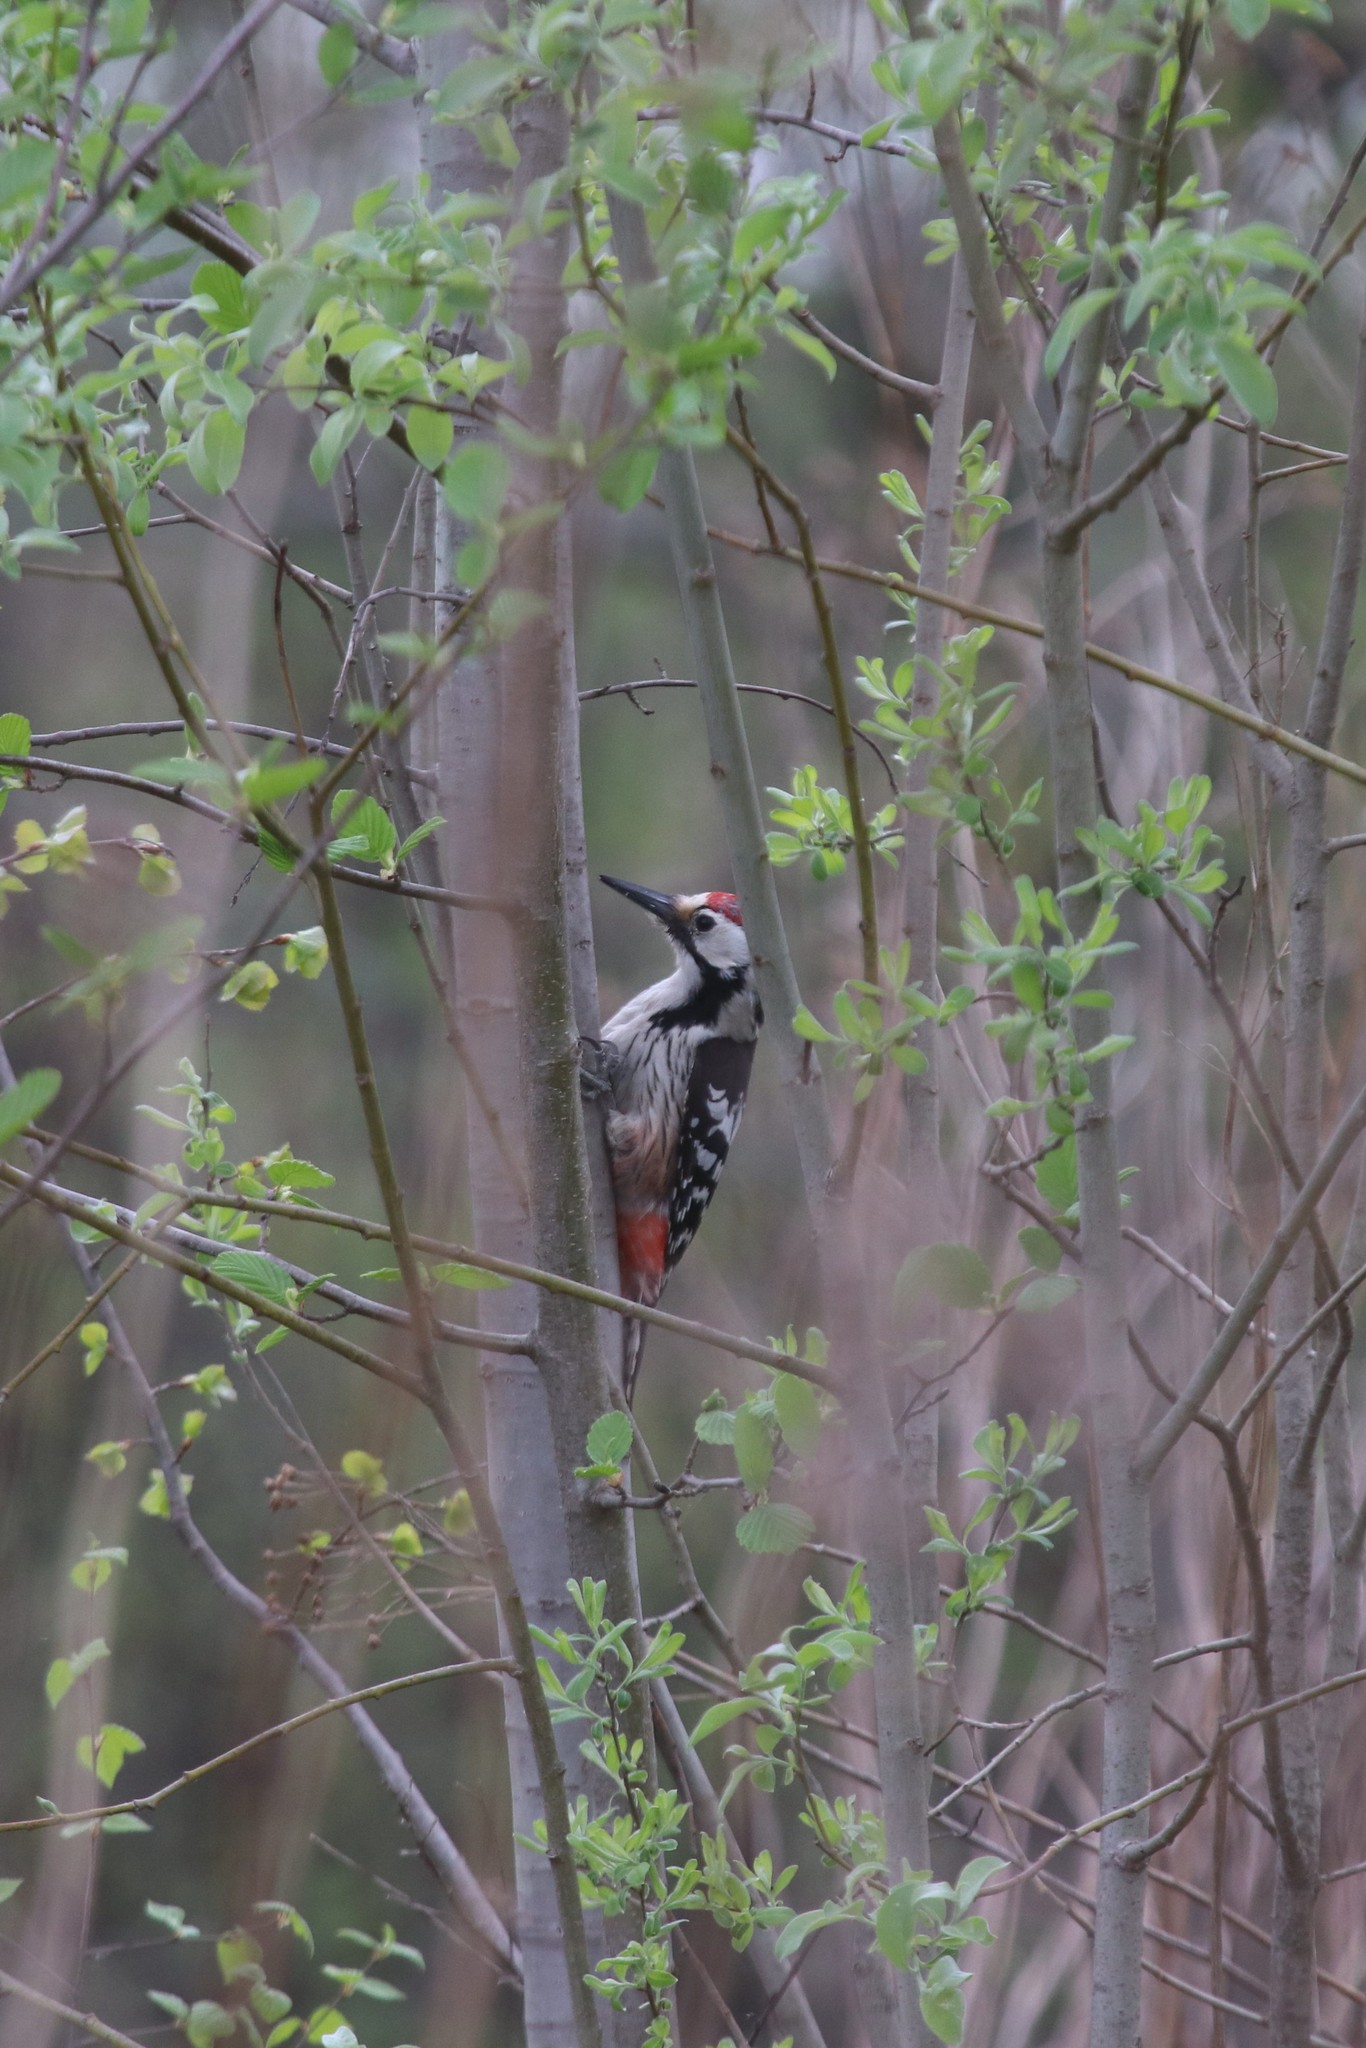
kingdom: Animalia
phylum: Chordata
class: Aves
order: Piciformes
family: Picidae
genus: Dendrocopos
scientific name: Dendrocopos leucotos
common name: White-backed woodpecker
